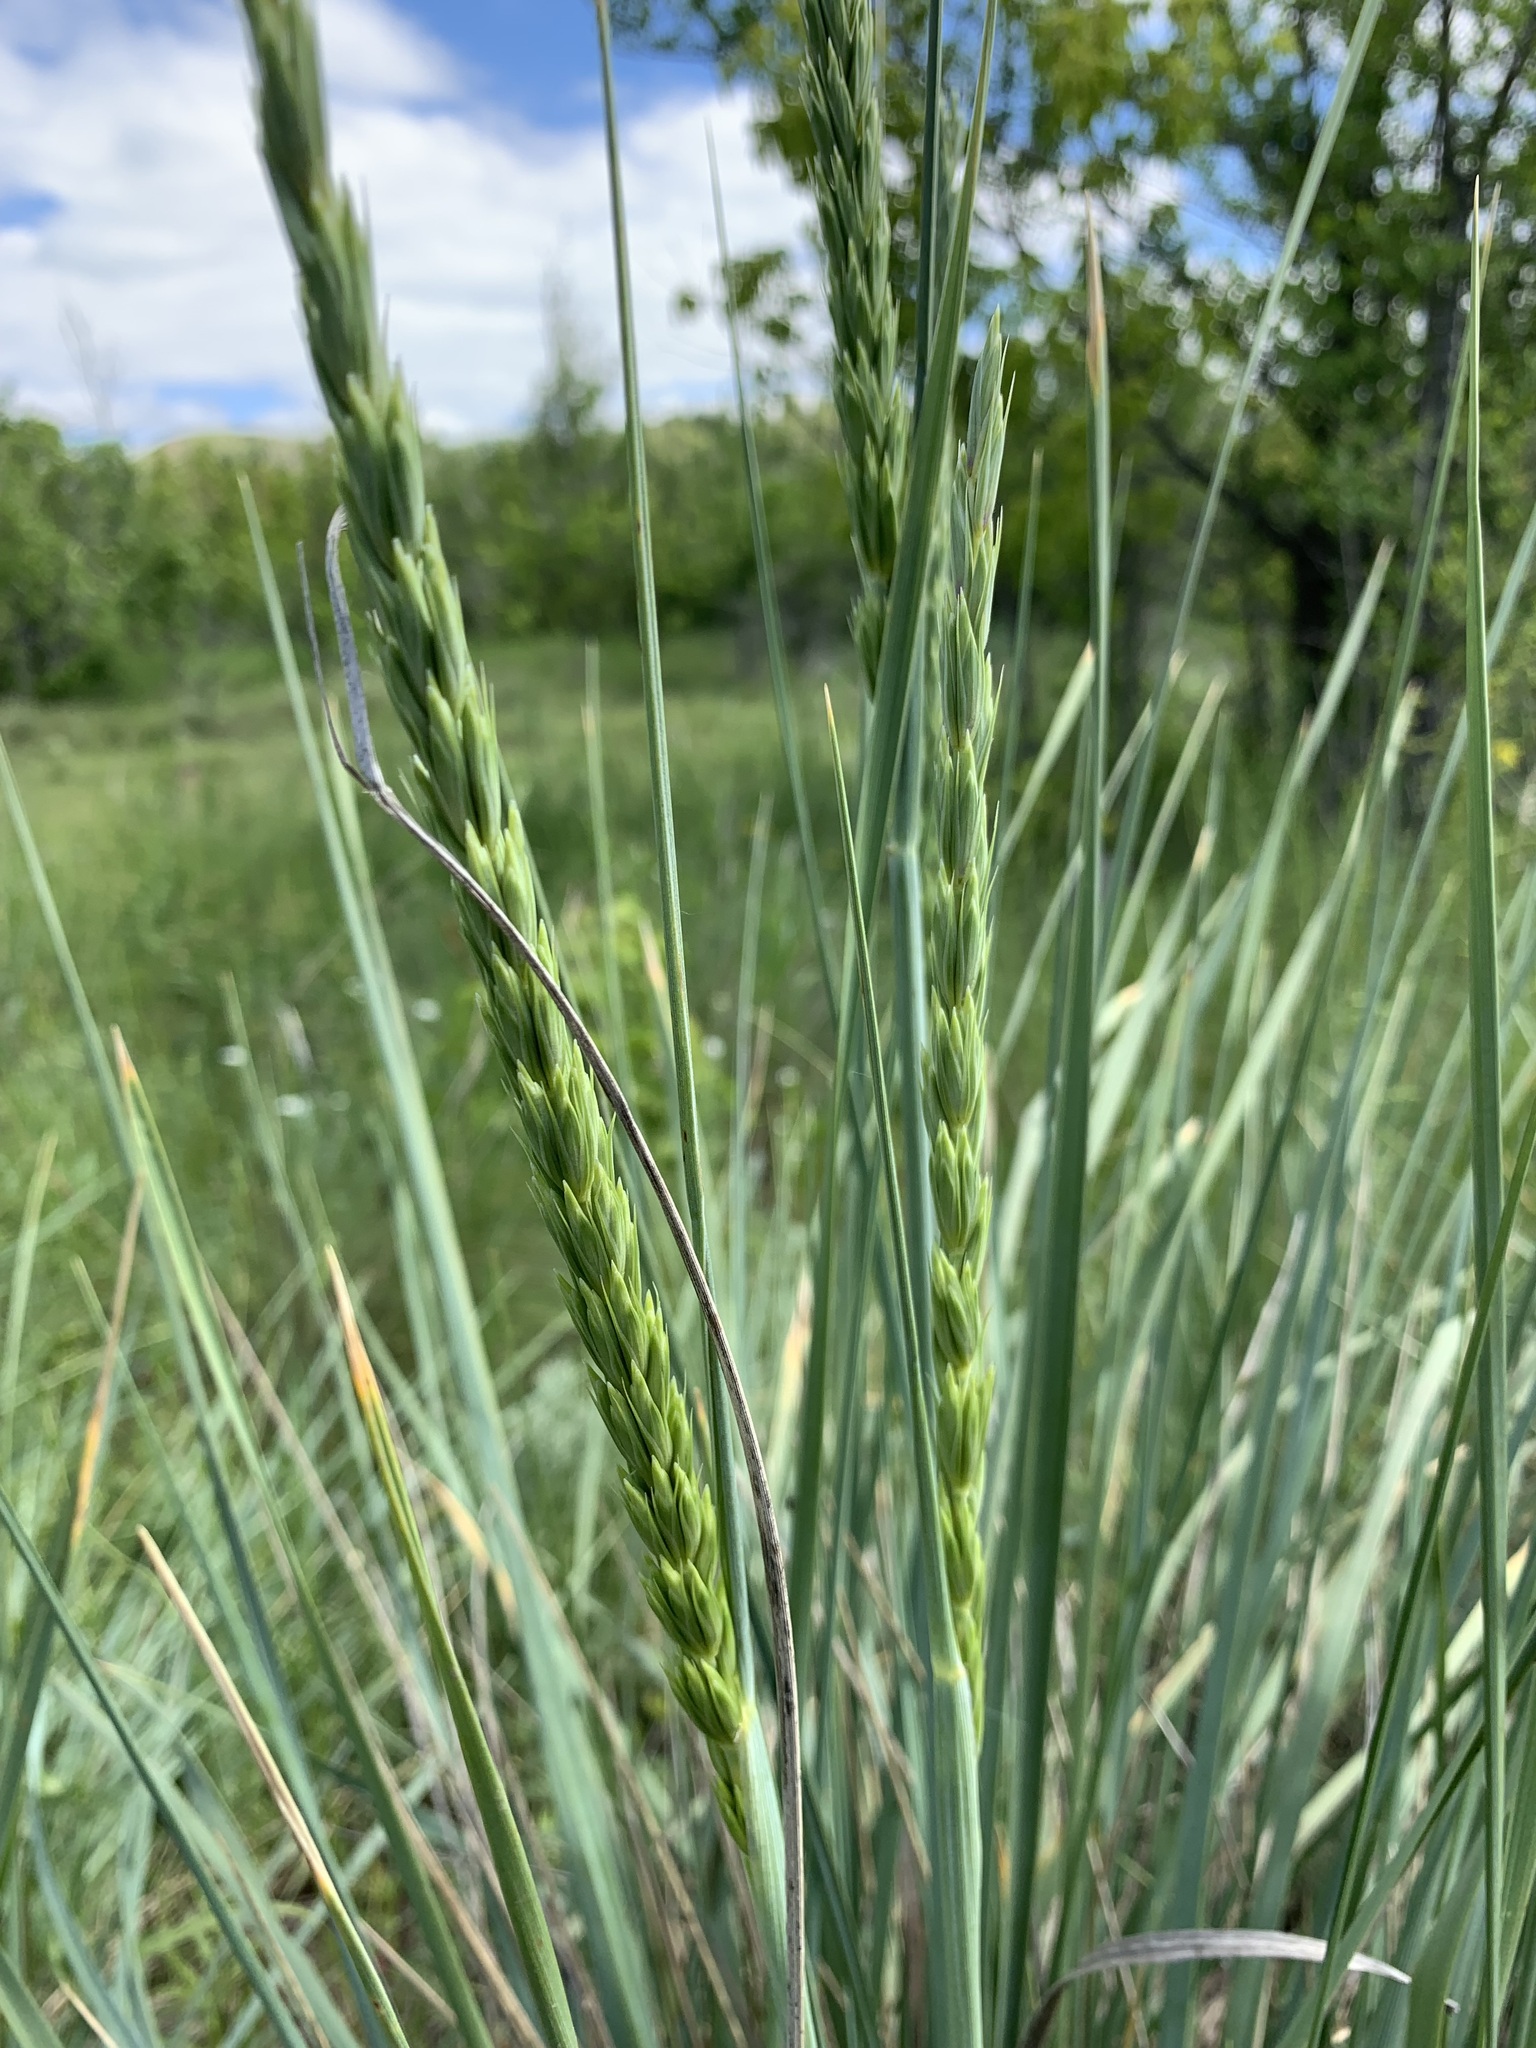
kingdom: Plantae
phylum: Tracheophyta
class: Liliopsida
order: Poales
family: Poaceae
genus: Leymus
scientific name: Leymus racemosus
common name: Mammoth wildrye
